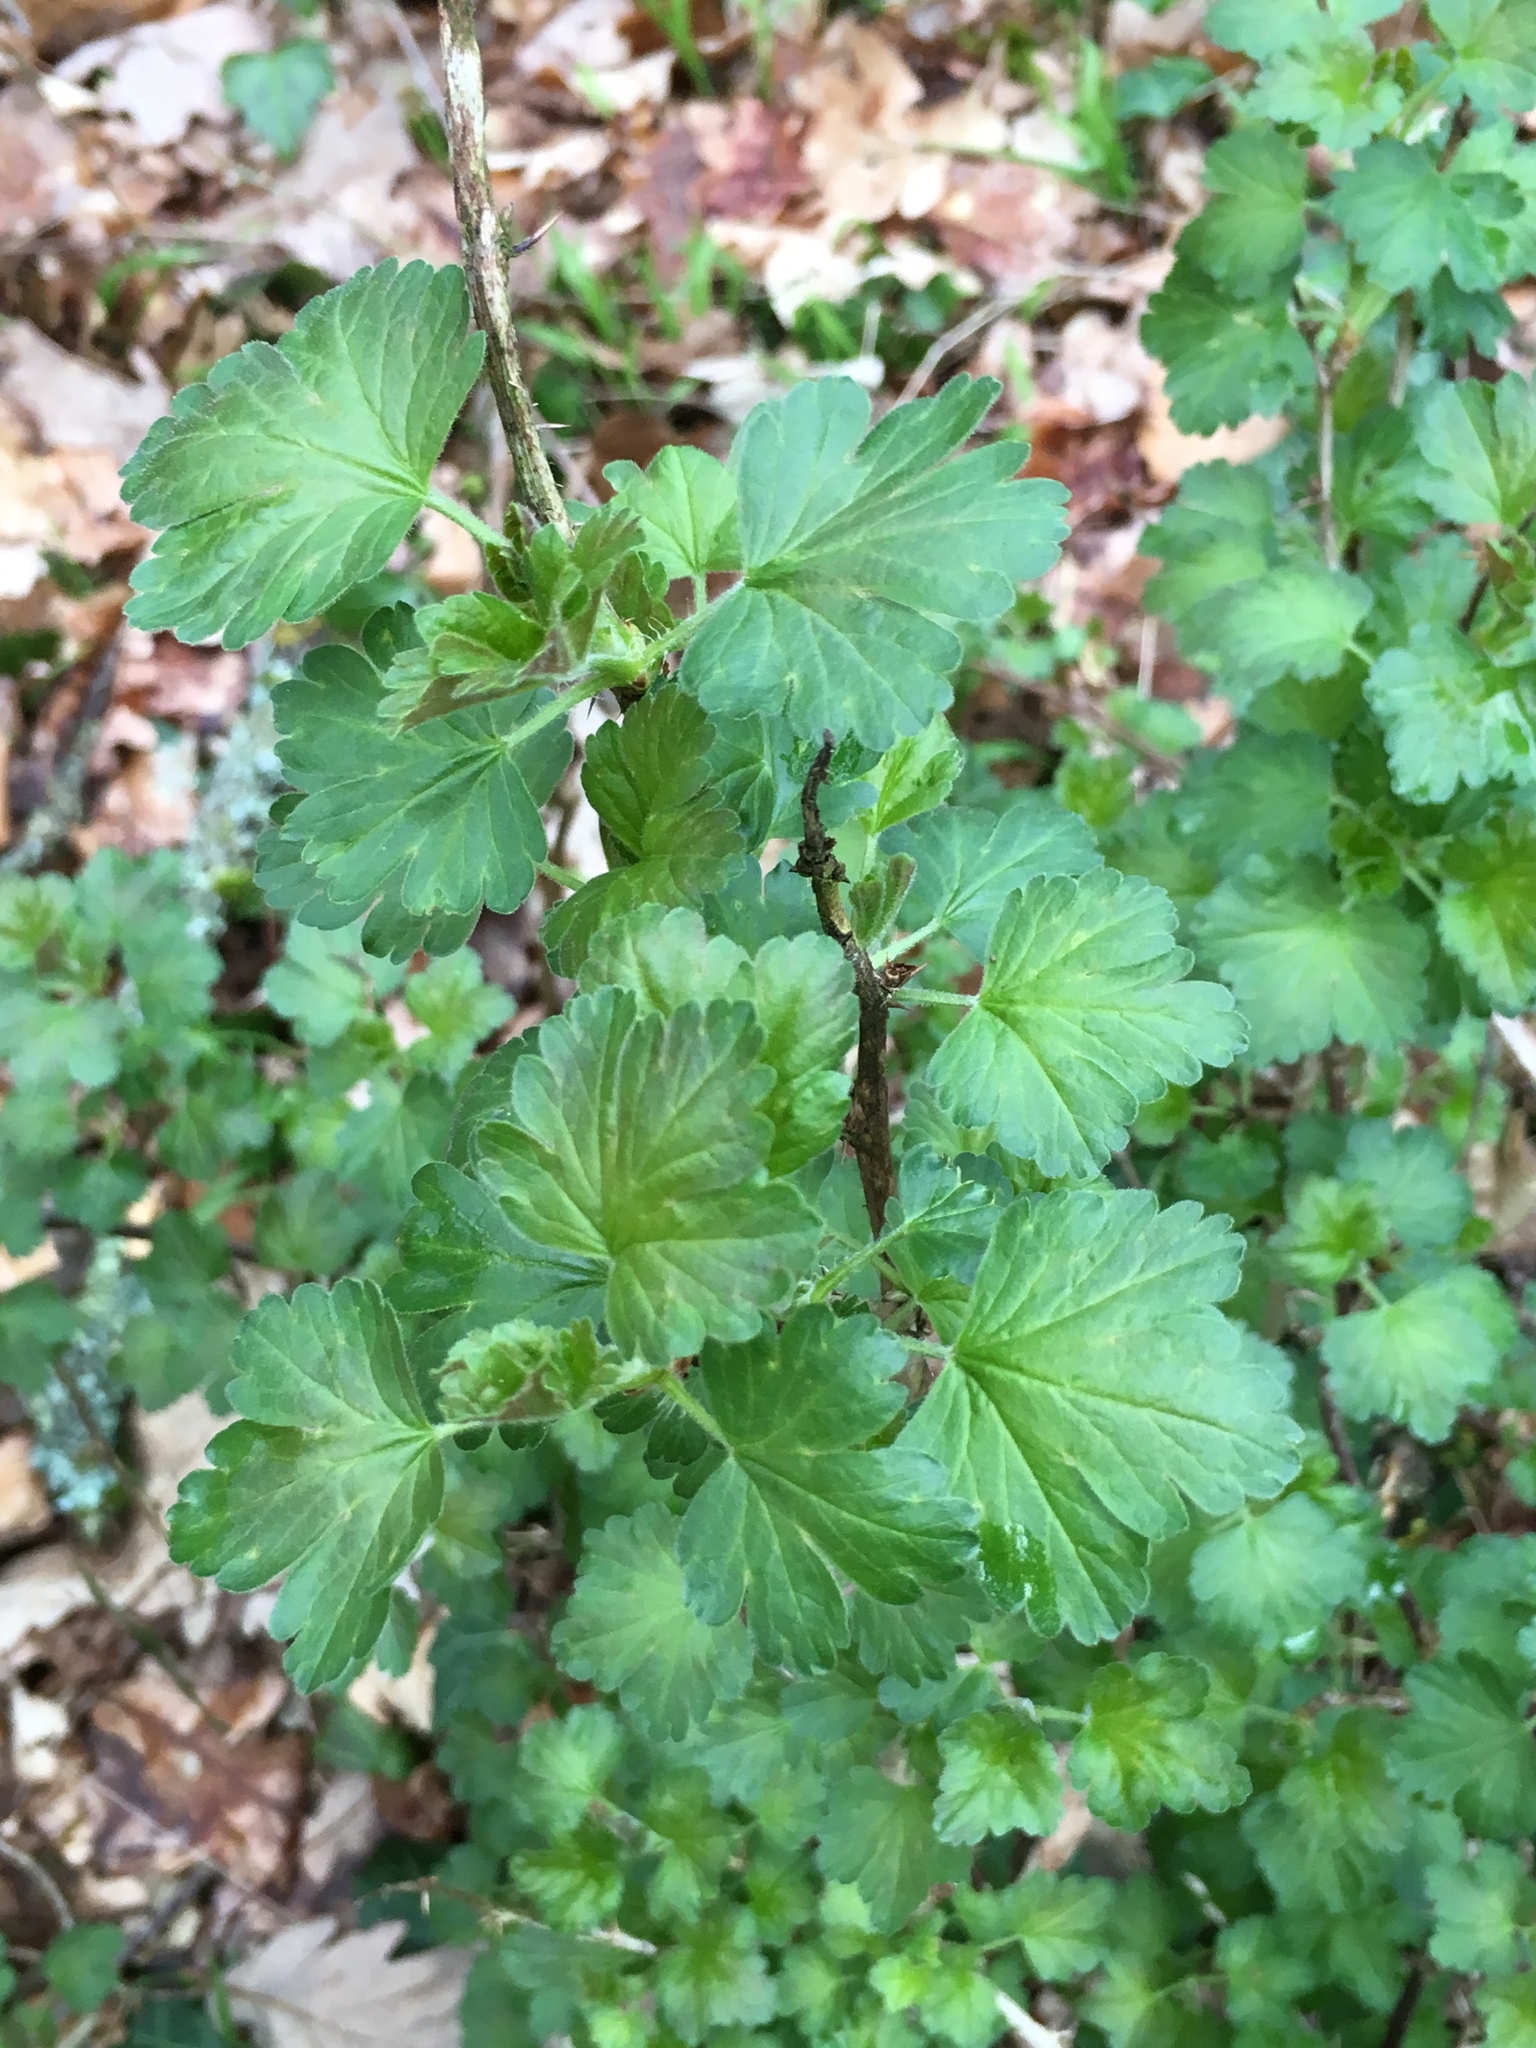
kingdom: Plantae
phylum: Tracheophyta
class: Magnoliopsida
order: Saxifragales
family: Grossulariaceae
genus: Ribes
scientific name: Ribes uva-crispa
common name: Gooseberry
